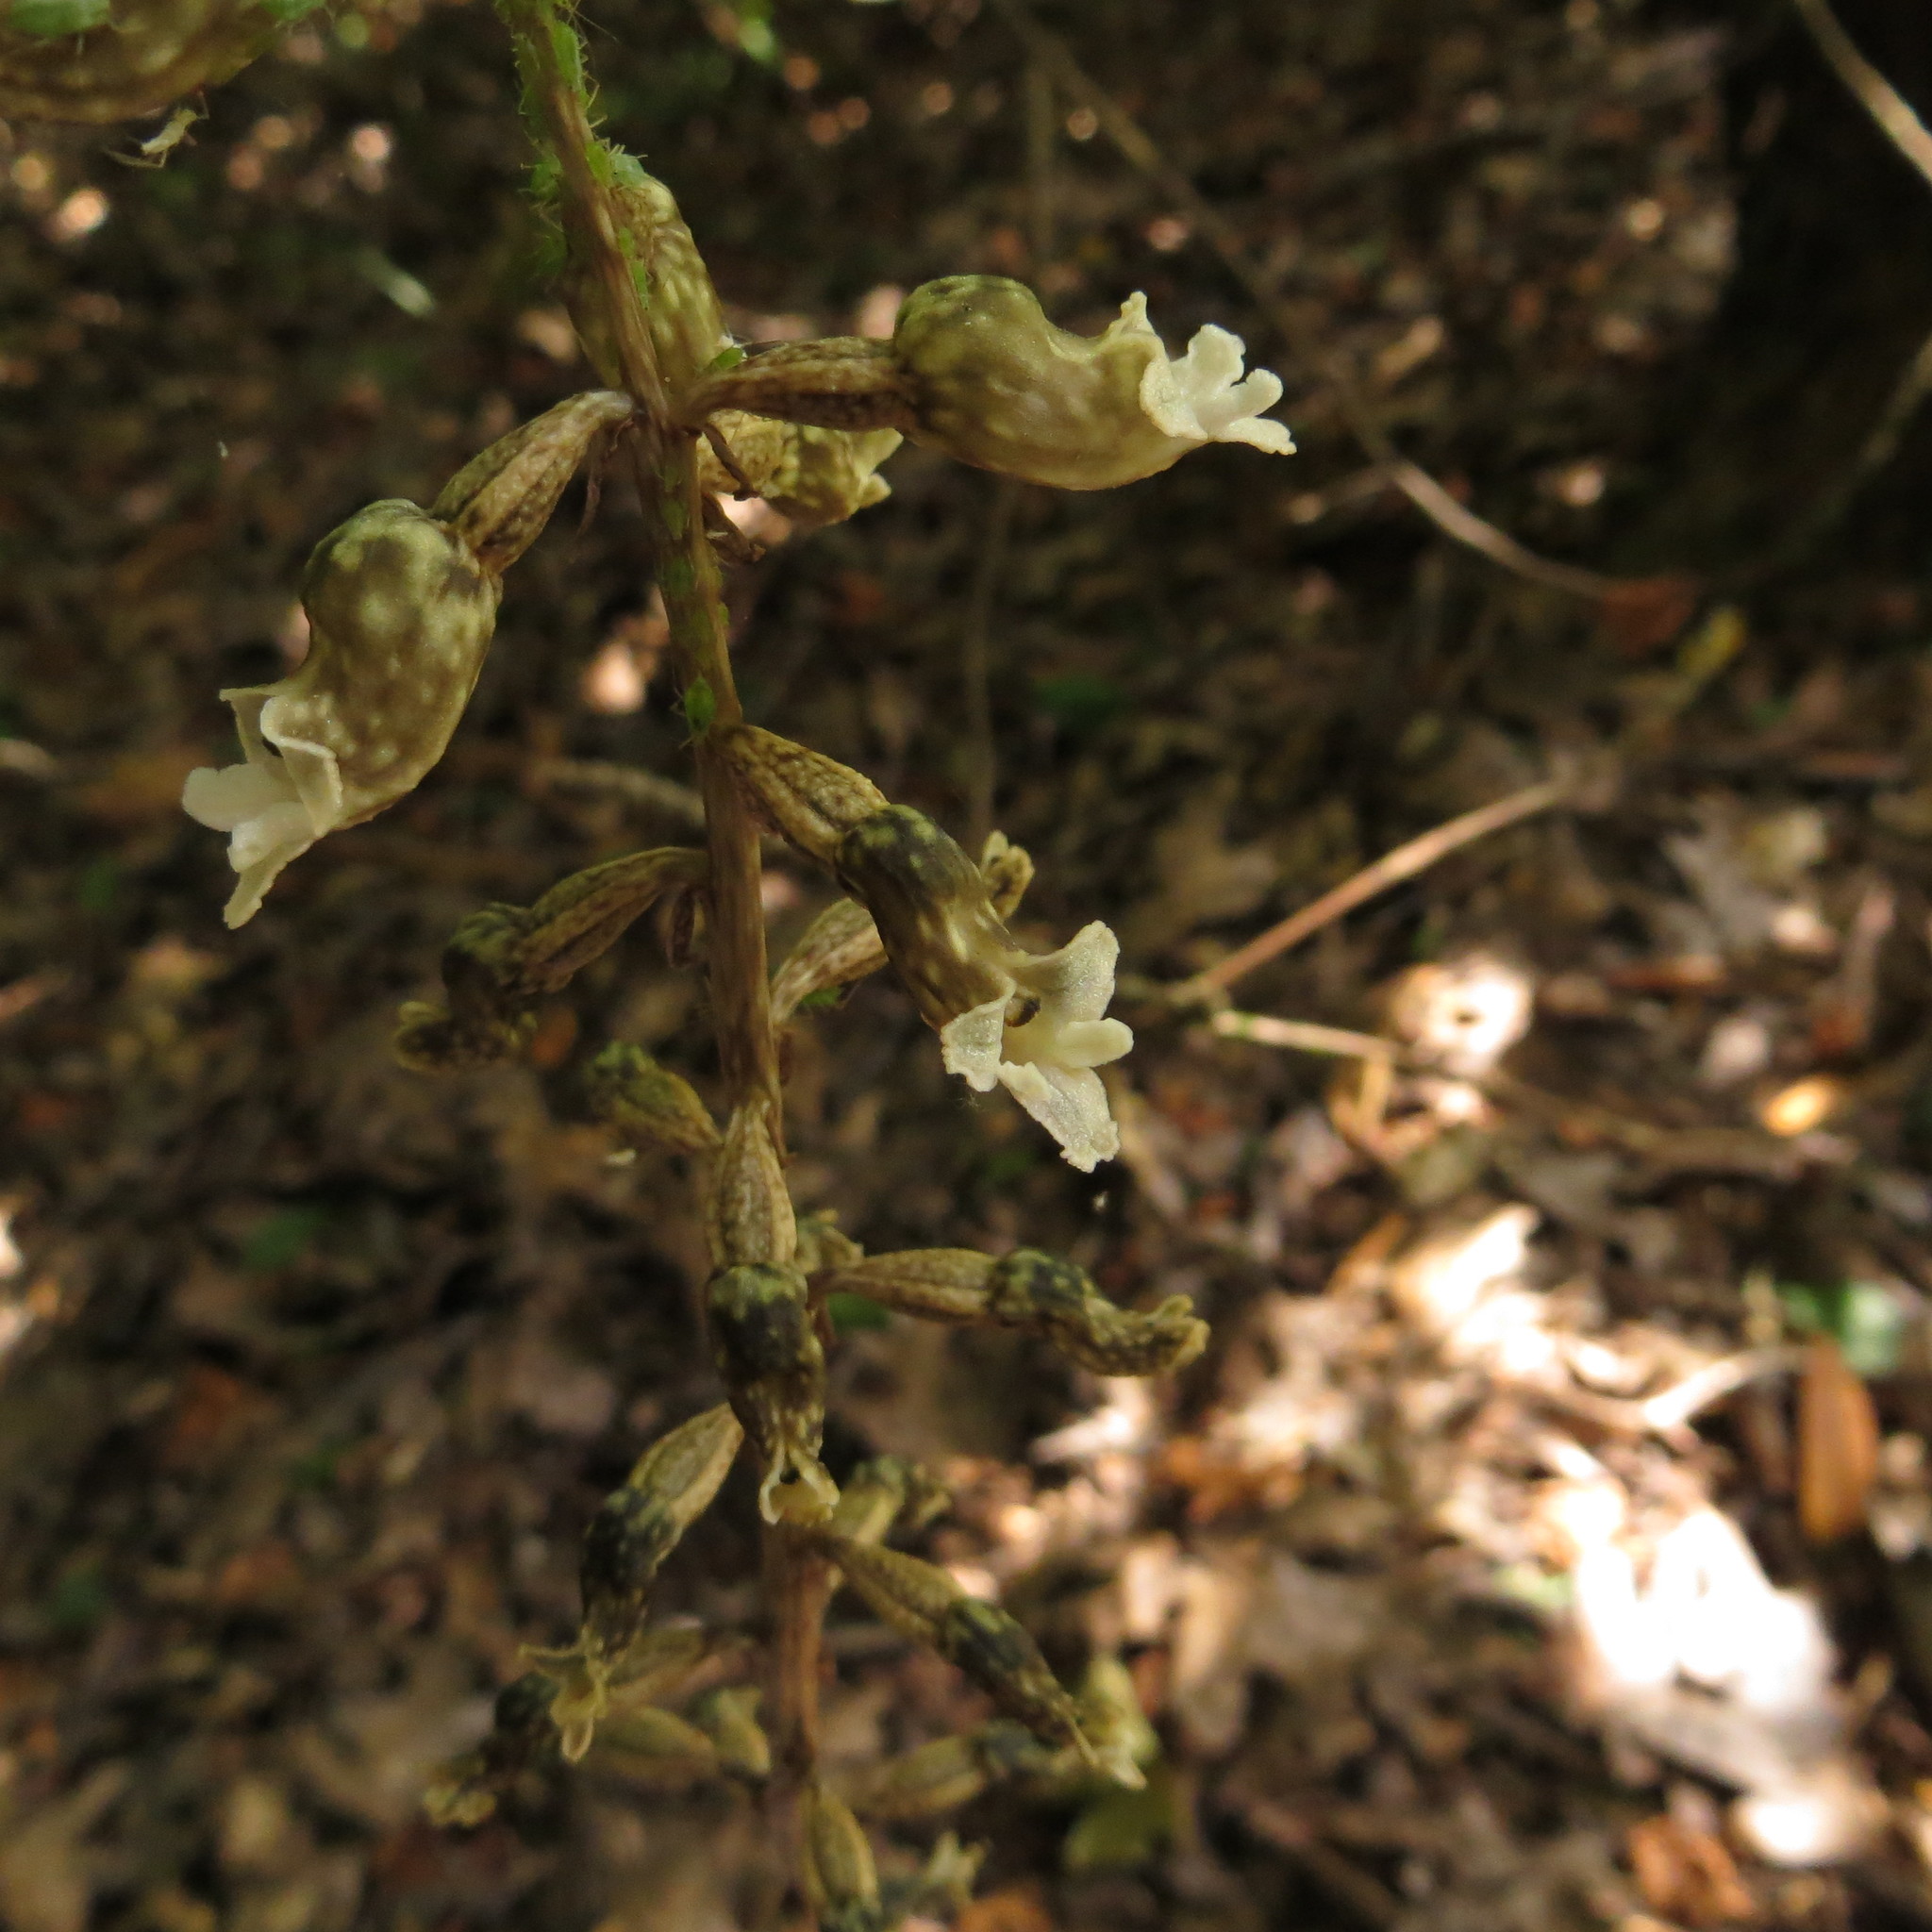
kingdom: Plantae
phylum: Tracheophyta
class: Liliopsida
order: Asparagales
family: Orchidaceae
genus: Gastrodia
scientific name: Gastrodia cunninghamii
